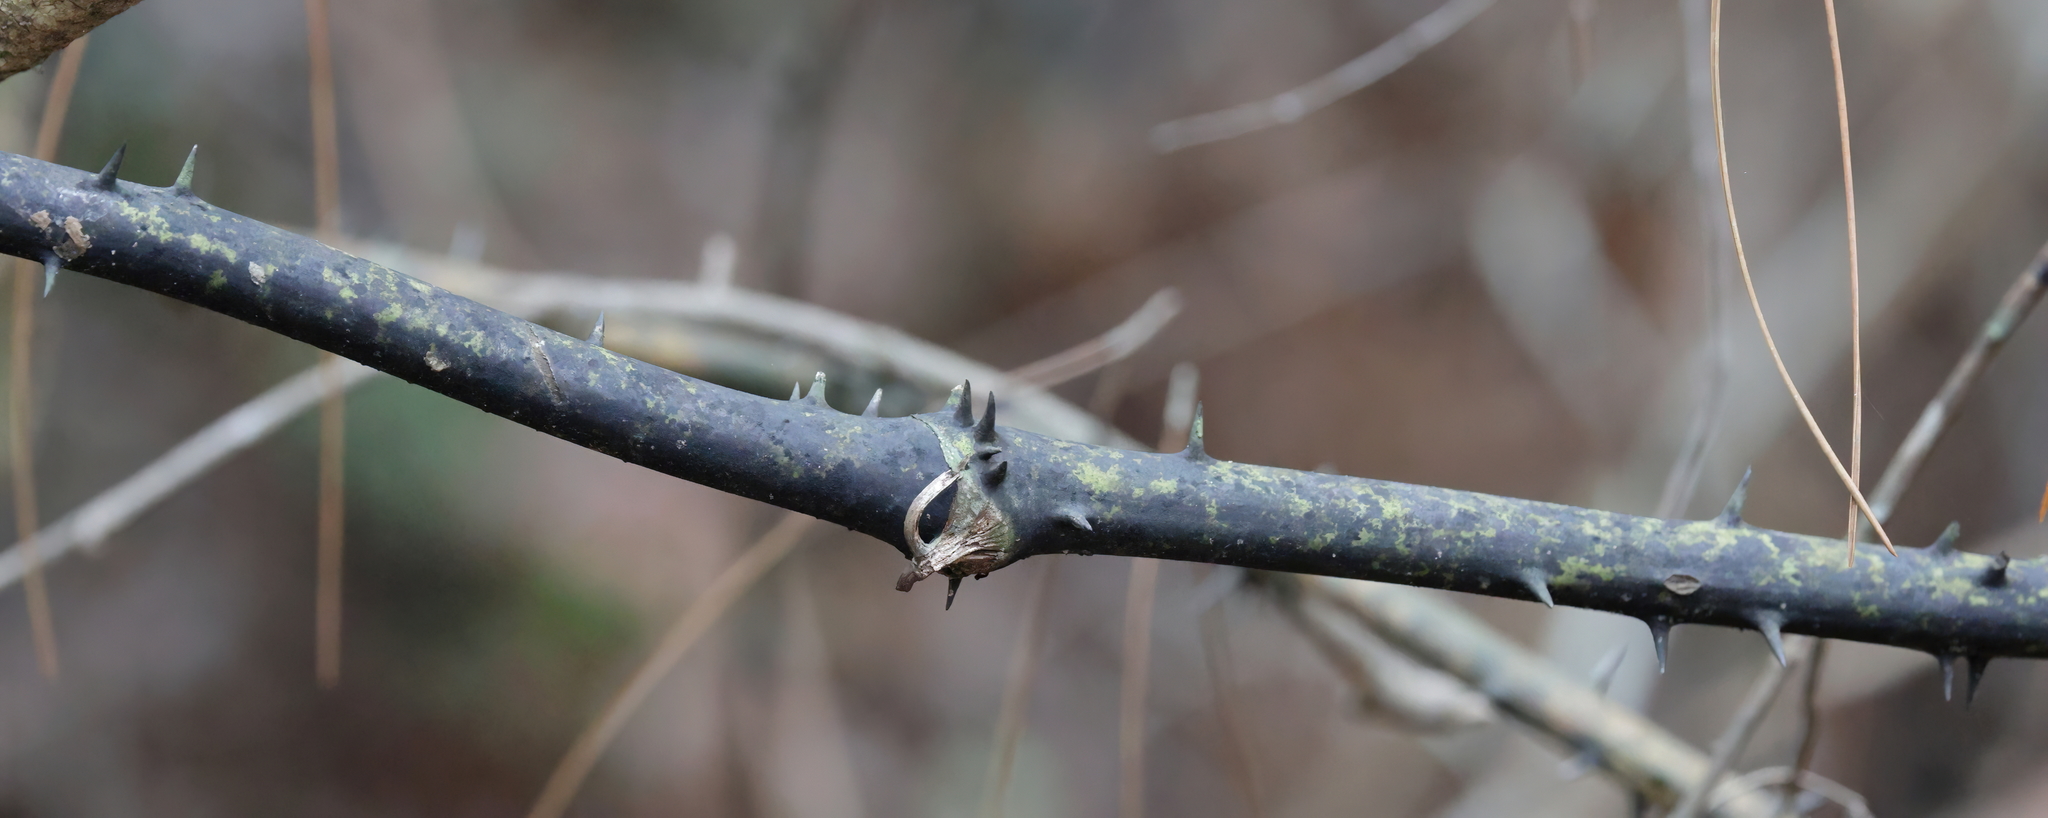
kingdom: Plantae
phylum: Tracheophyta
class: Liliopsida
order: Liliales
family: Smilacaceae
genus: Smilax
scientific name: Smilax laurifolia
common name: Bamboovine
